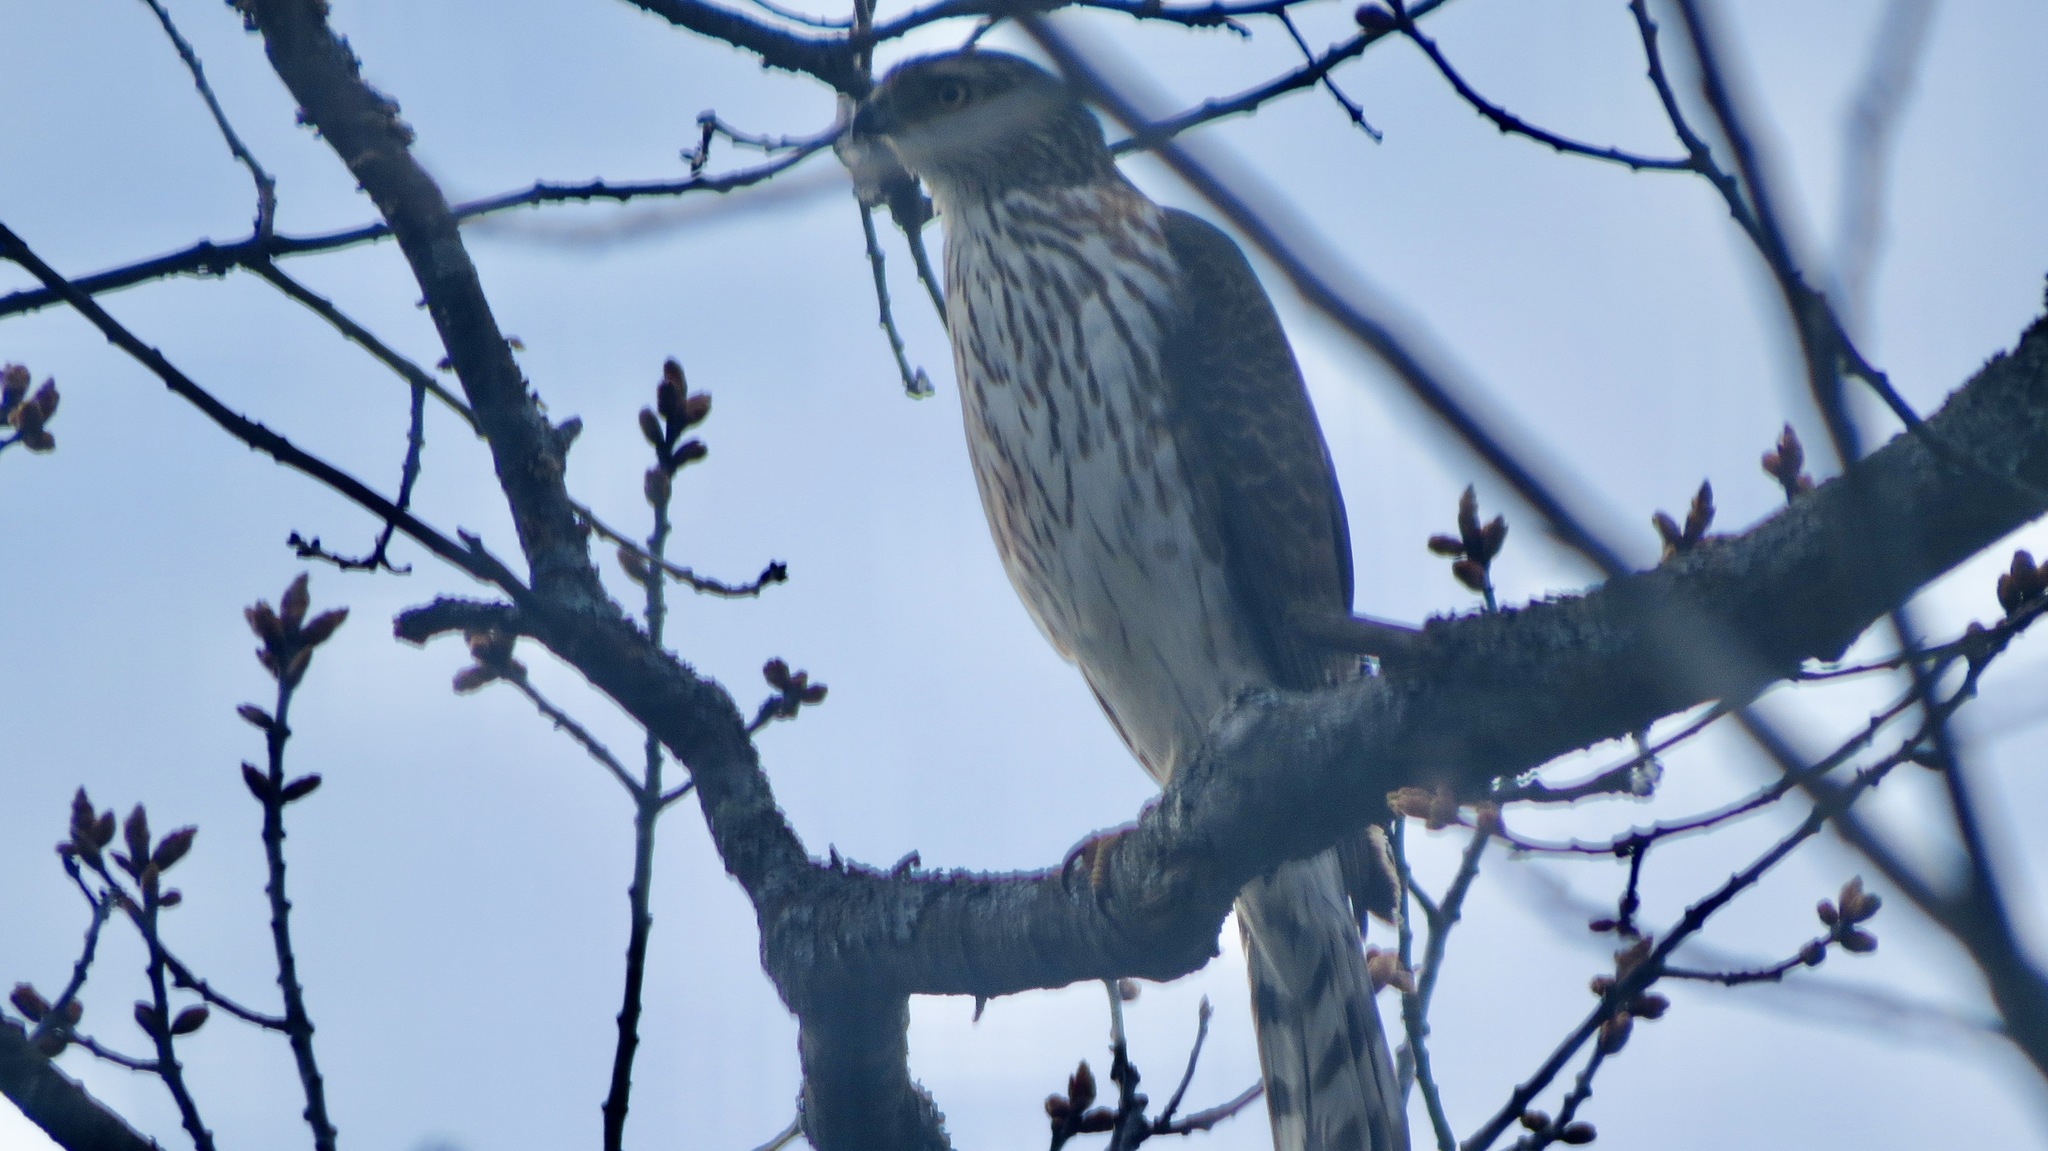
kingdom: Animalia
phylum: Chordata
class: Aves
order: Accipitriformes
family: Accipitridae
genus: Accipiter
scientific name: Accipiter cooperii
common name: Cooper's hawk
